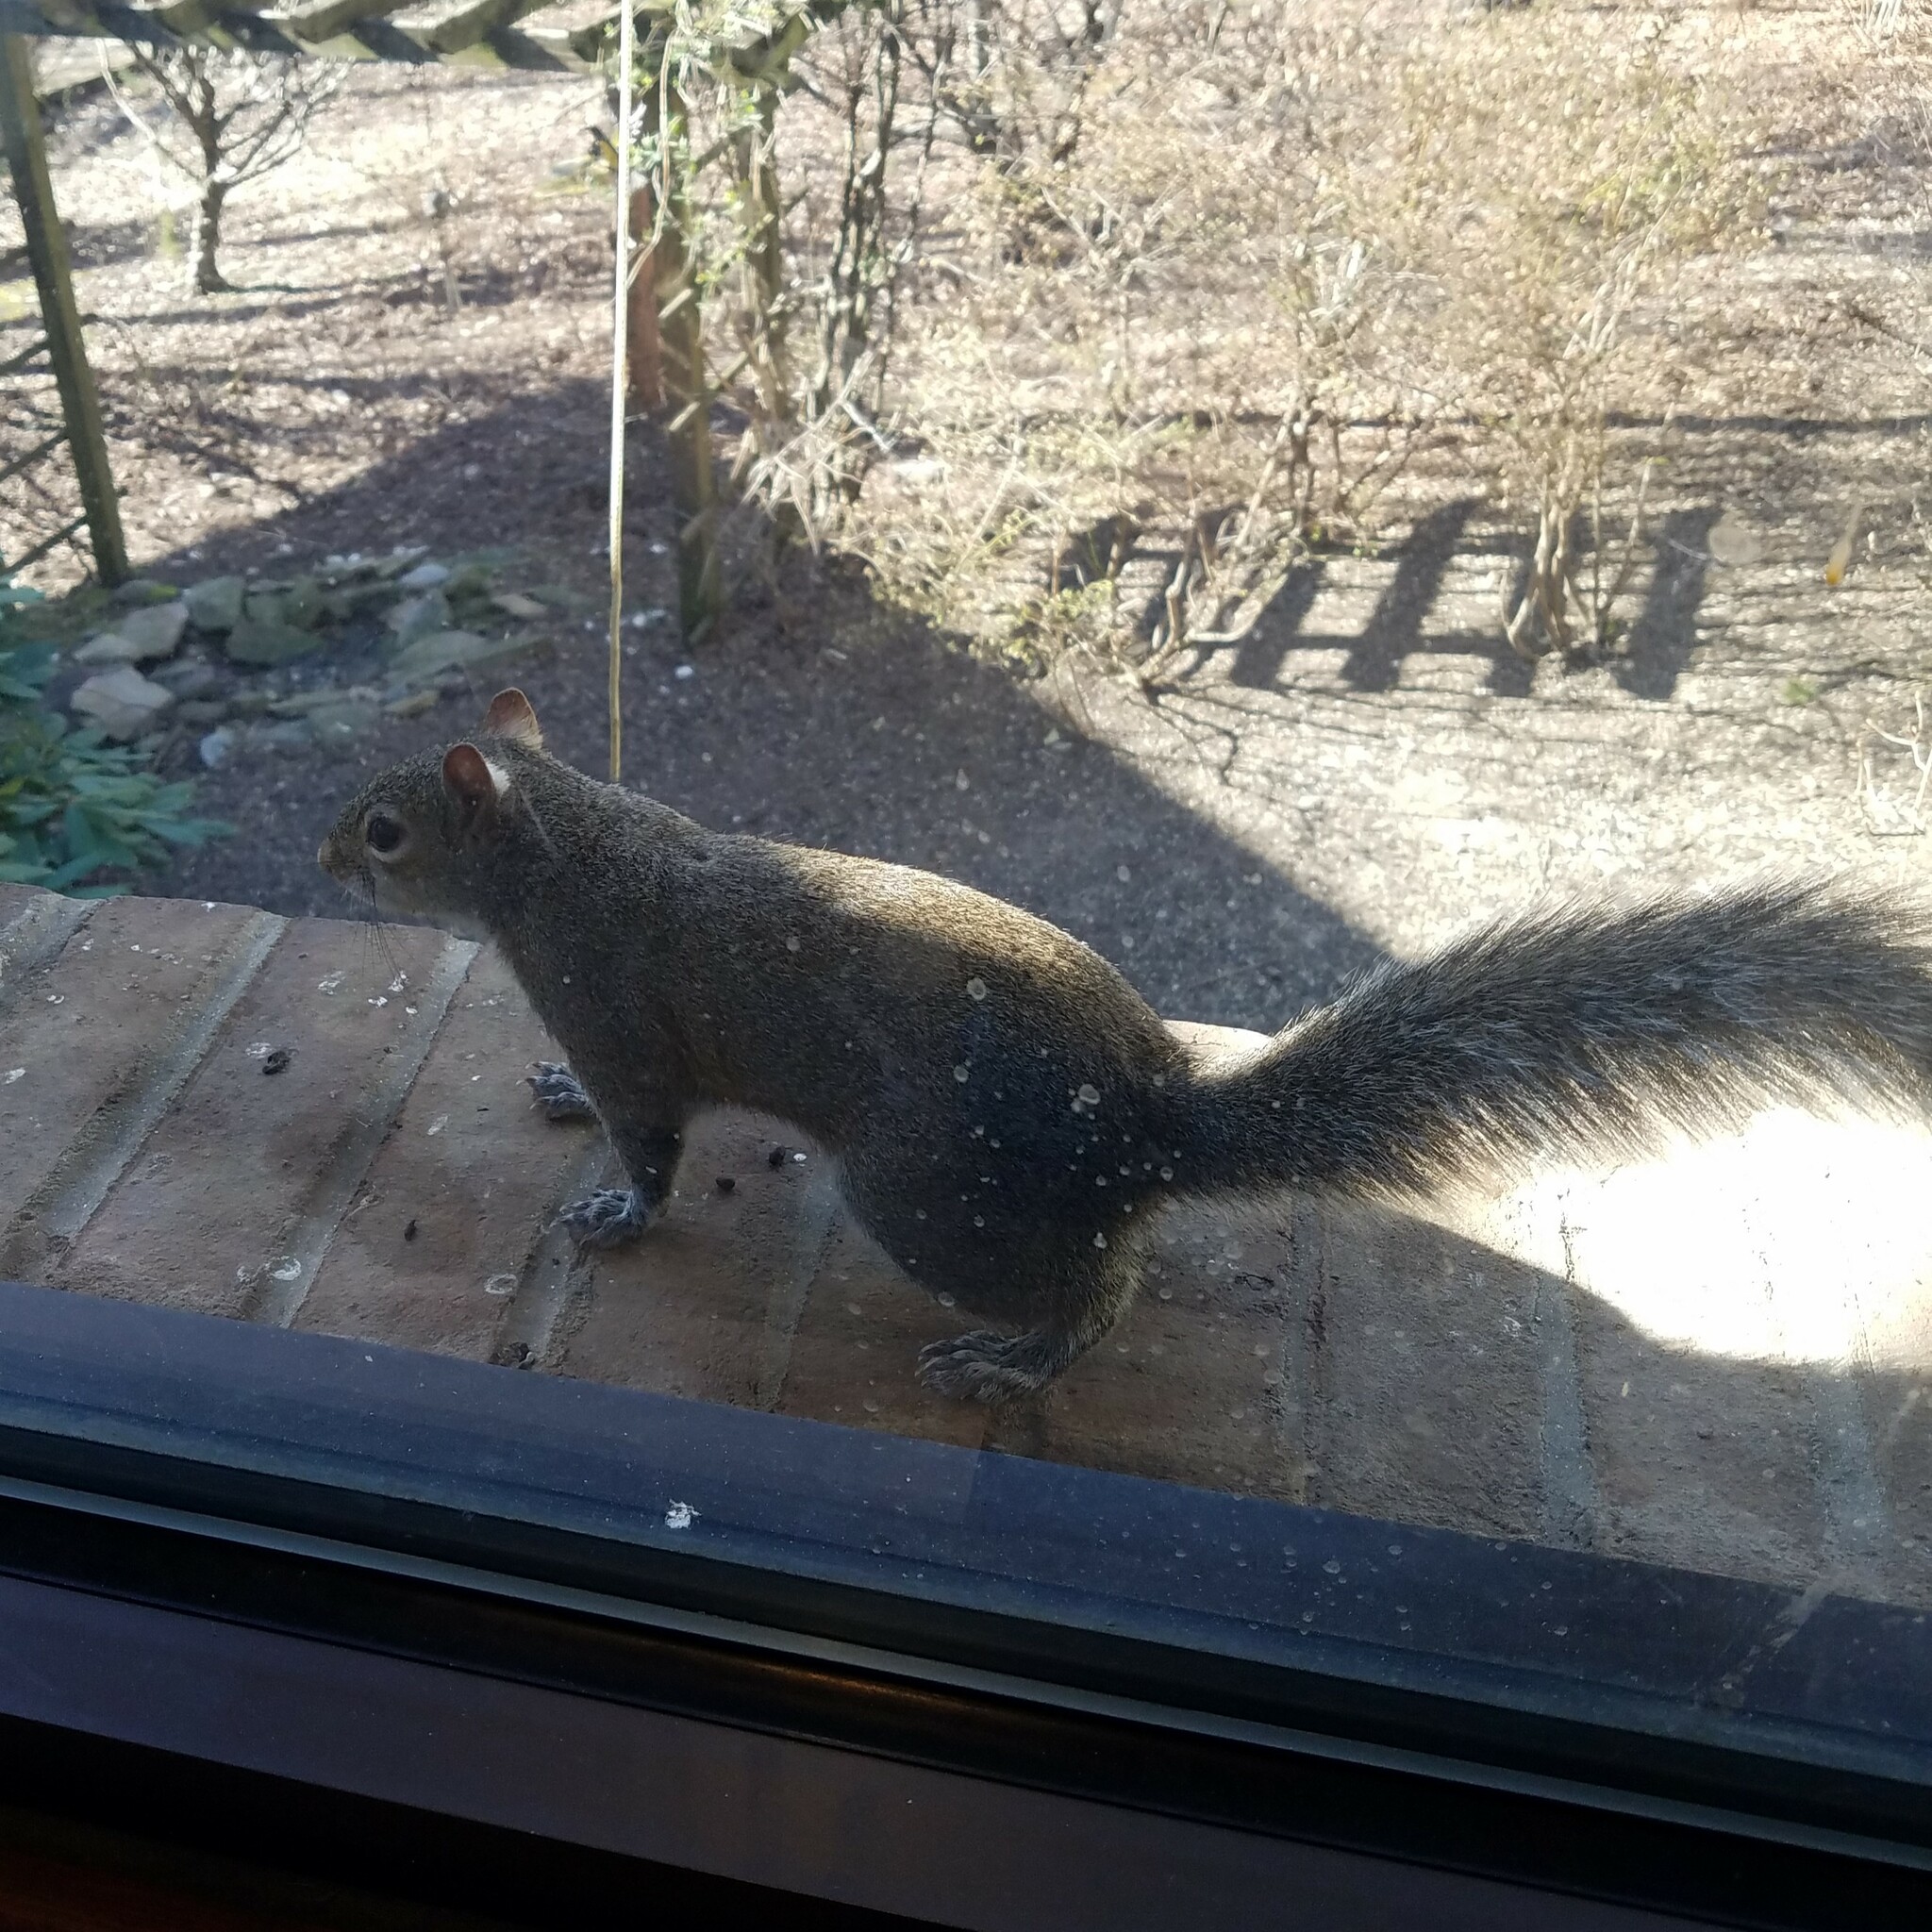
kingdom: Animalia
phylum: Chordata
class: Mammalia
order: Rodentia
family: Sciuridae
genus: Sciurus
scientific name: Sciurus carolinensis
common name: Eastern gray squirrel
